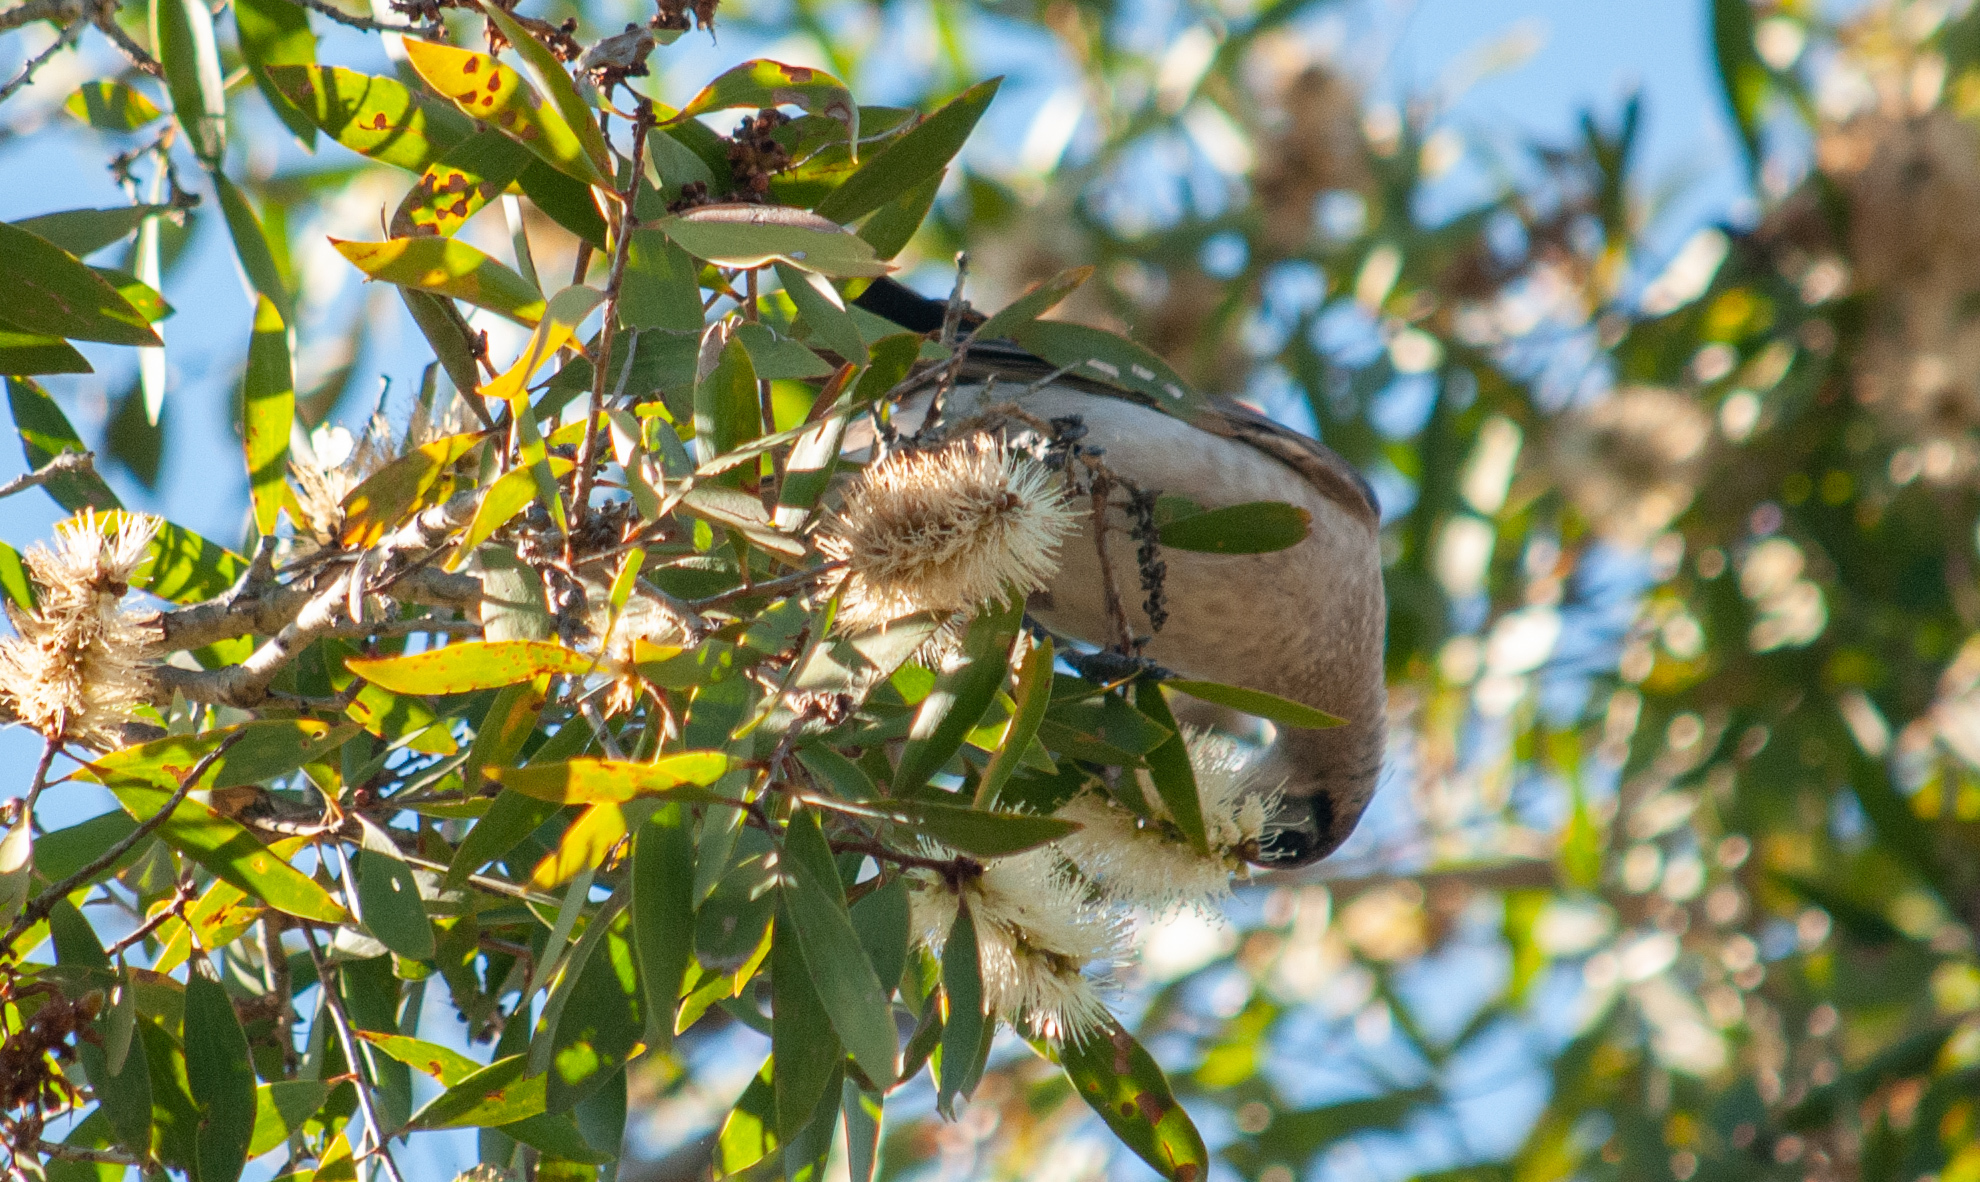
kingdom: Animalia
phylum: Chordata
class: Aves
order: Passeriformes
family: Meliphagidae
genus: Philemon
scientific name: Philemon citreogularis
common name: Little friarbird
